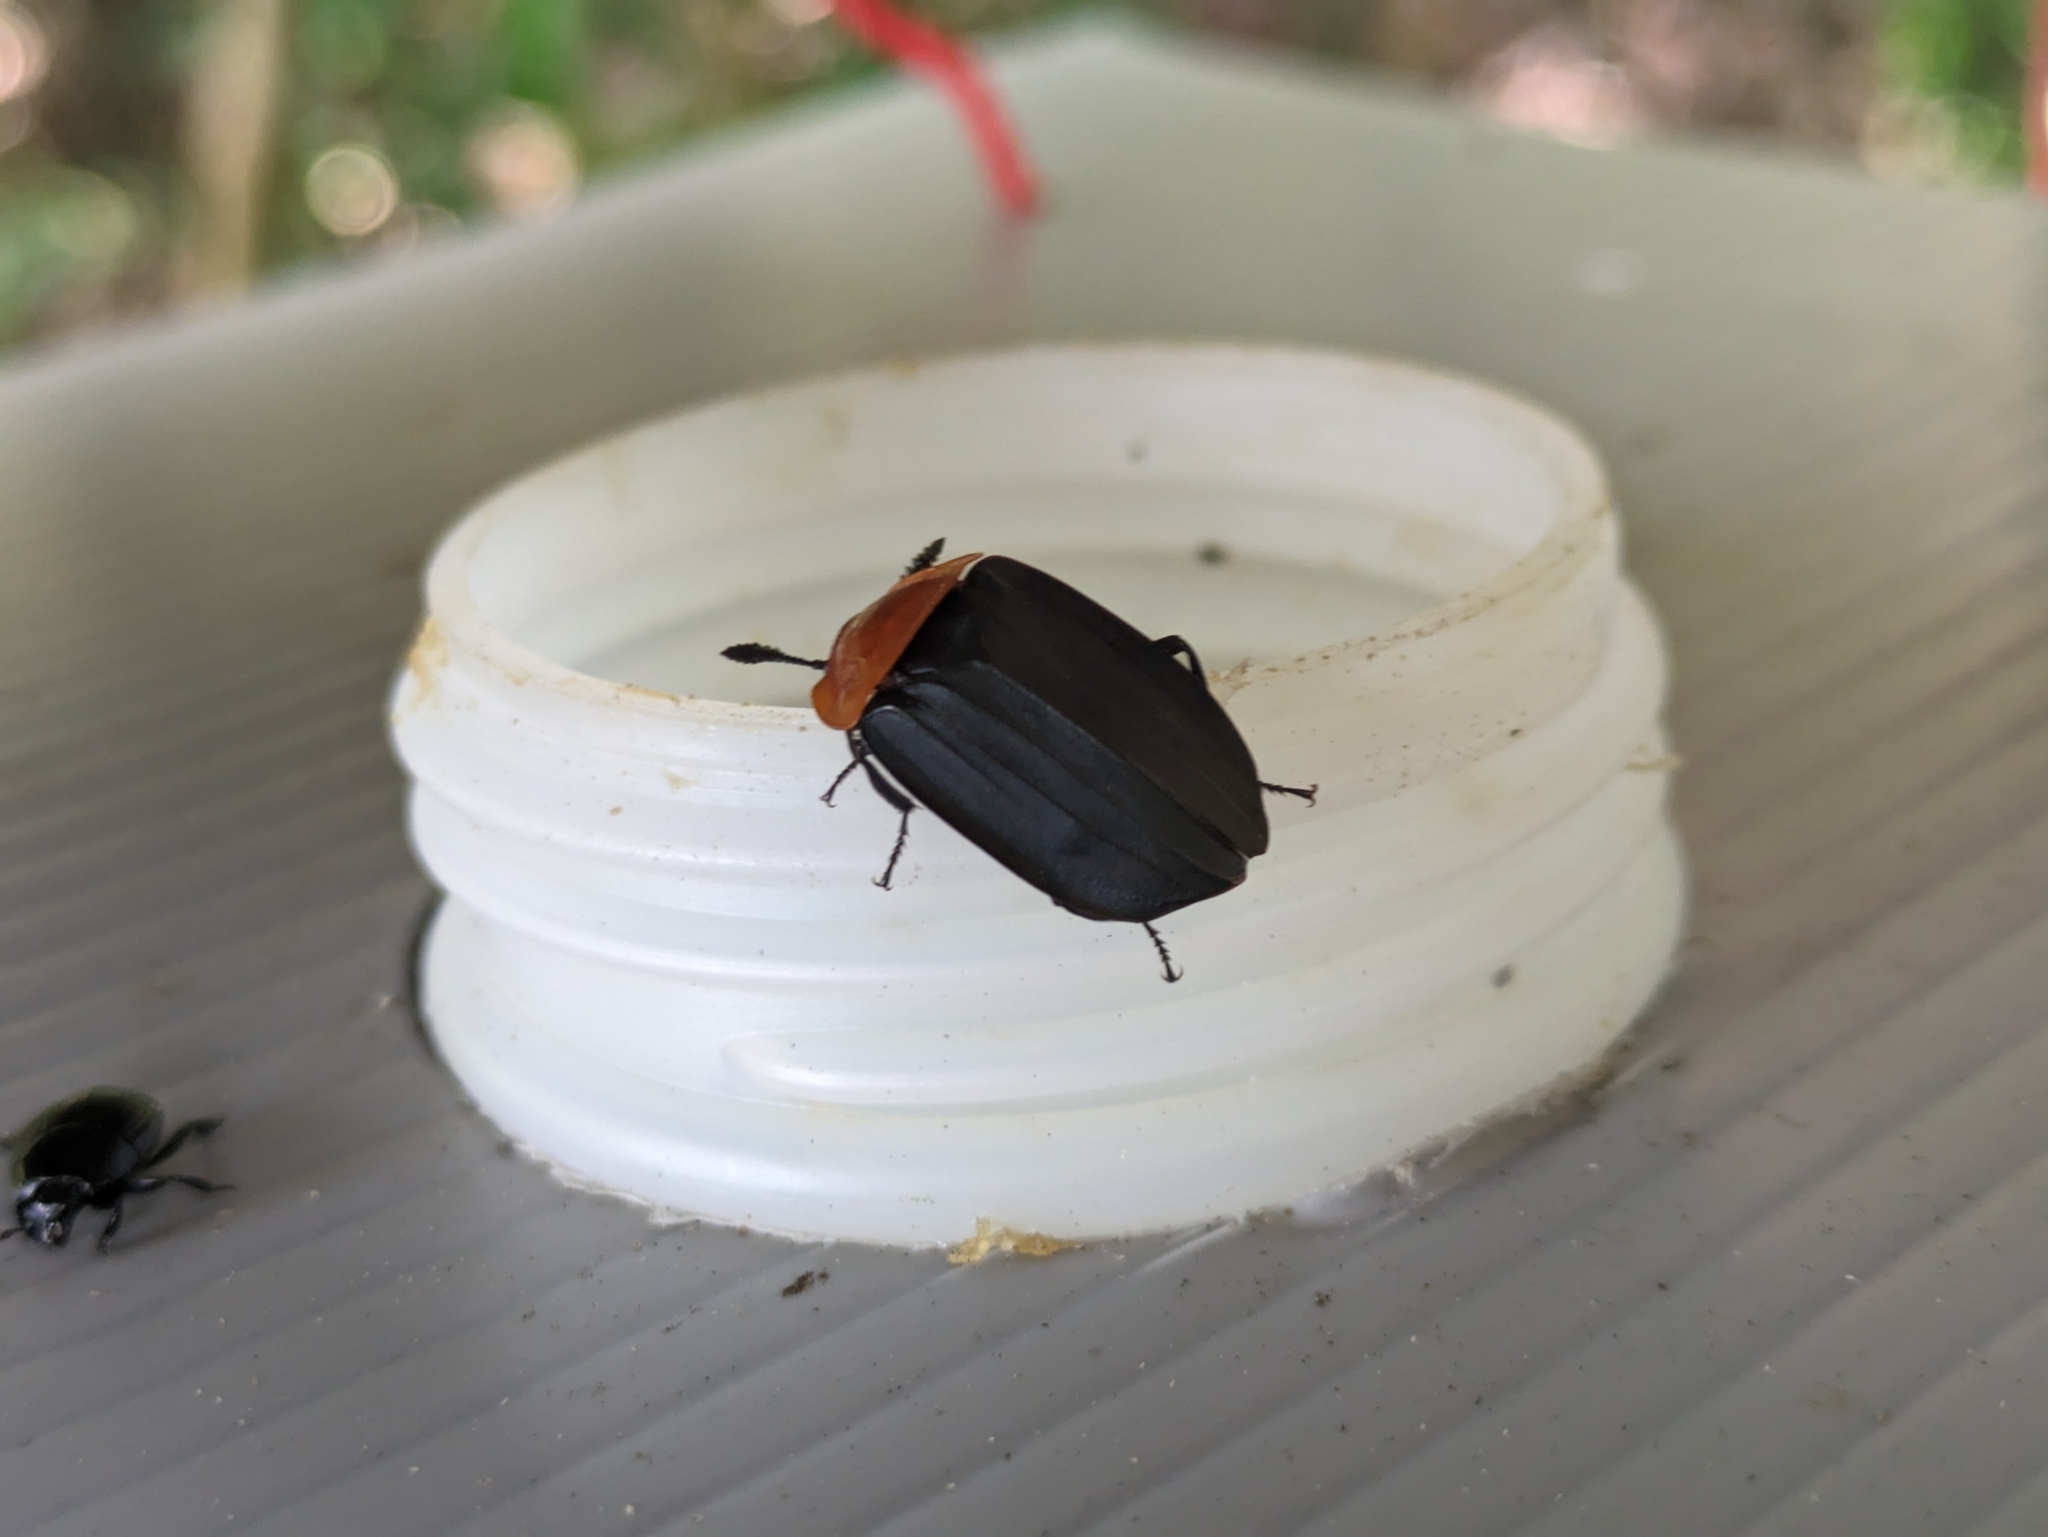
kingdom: Animalia
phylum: Arthropoda
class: Insecta
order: Coleoptera
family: Staphylinidae
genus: Necrophila
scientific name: Necrophila cyaneocephala
